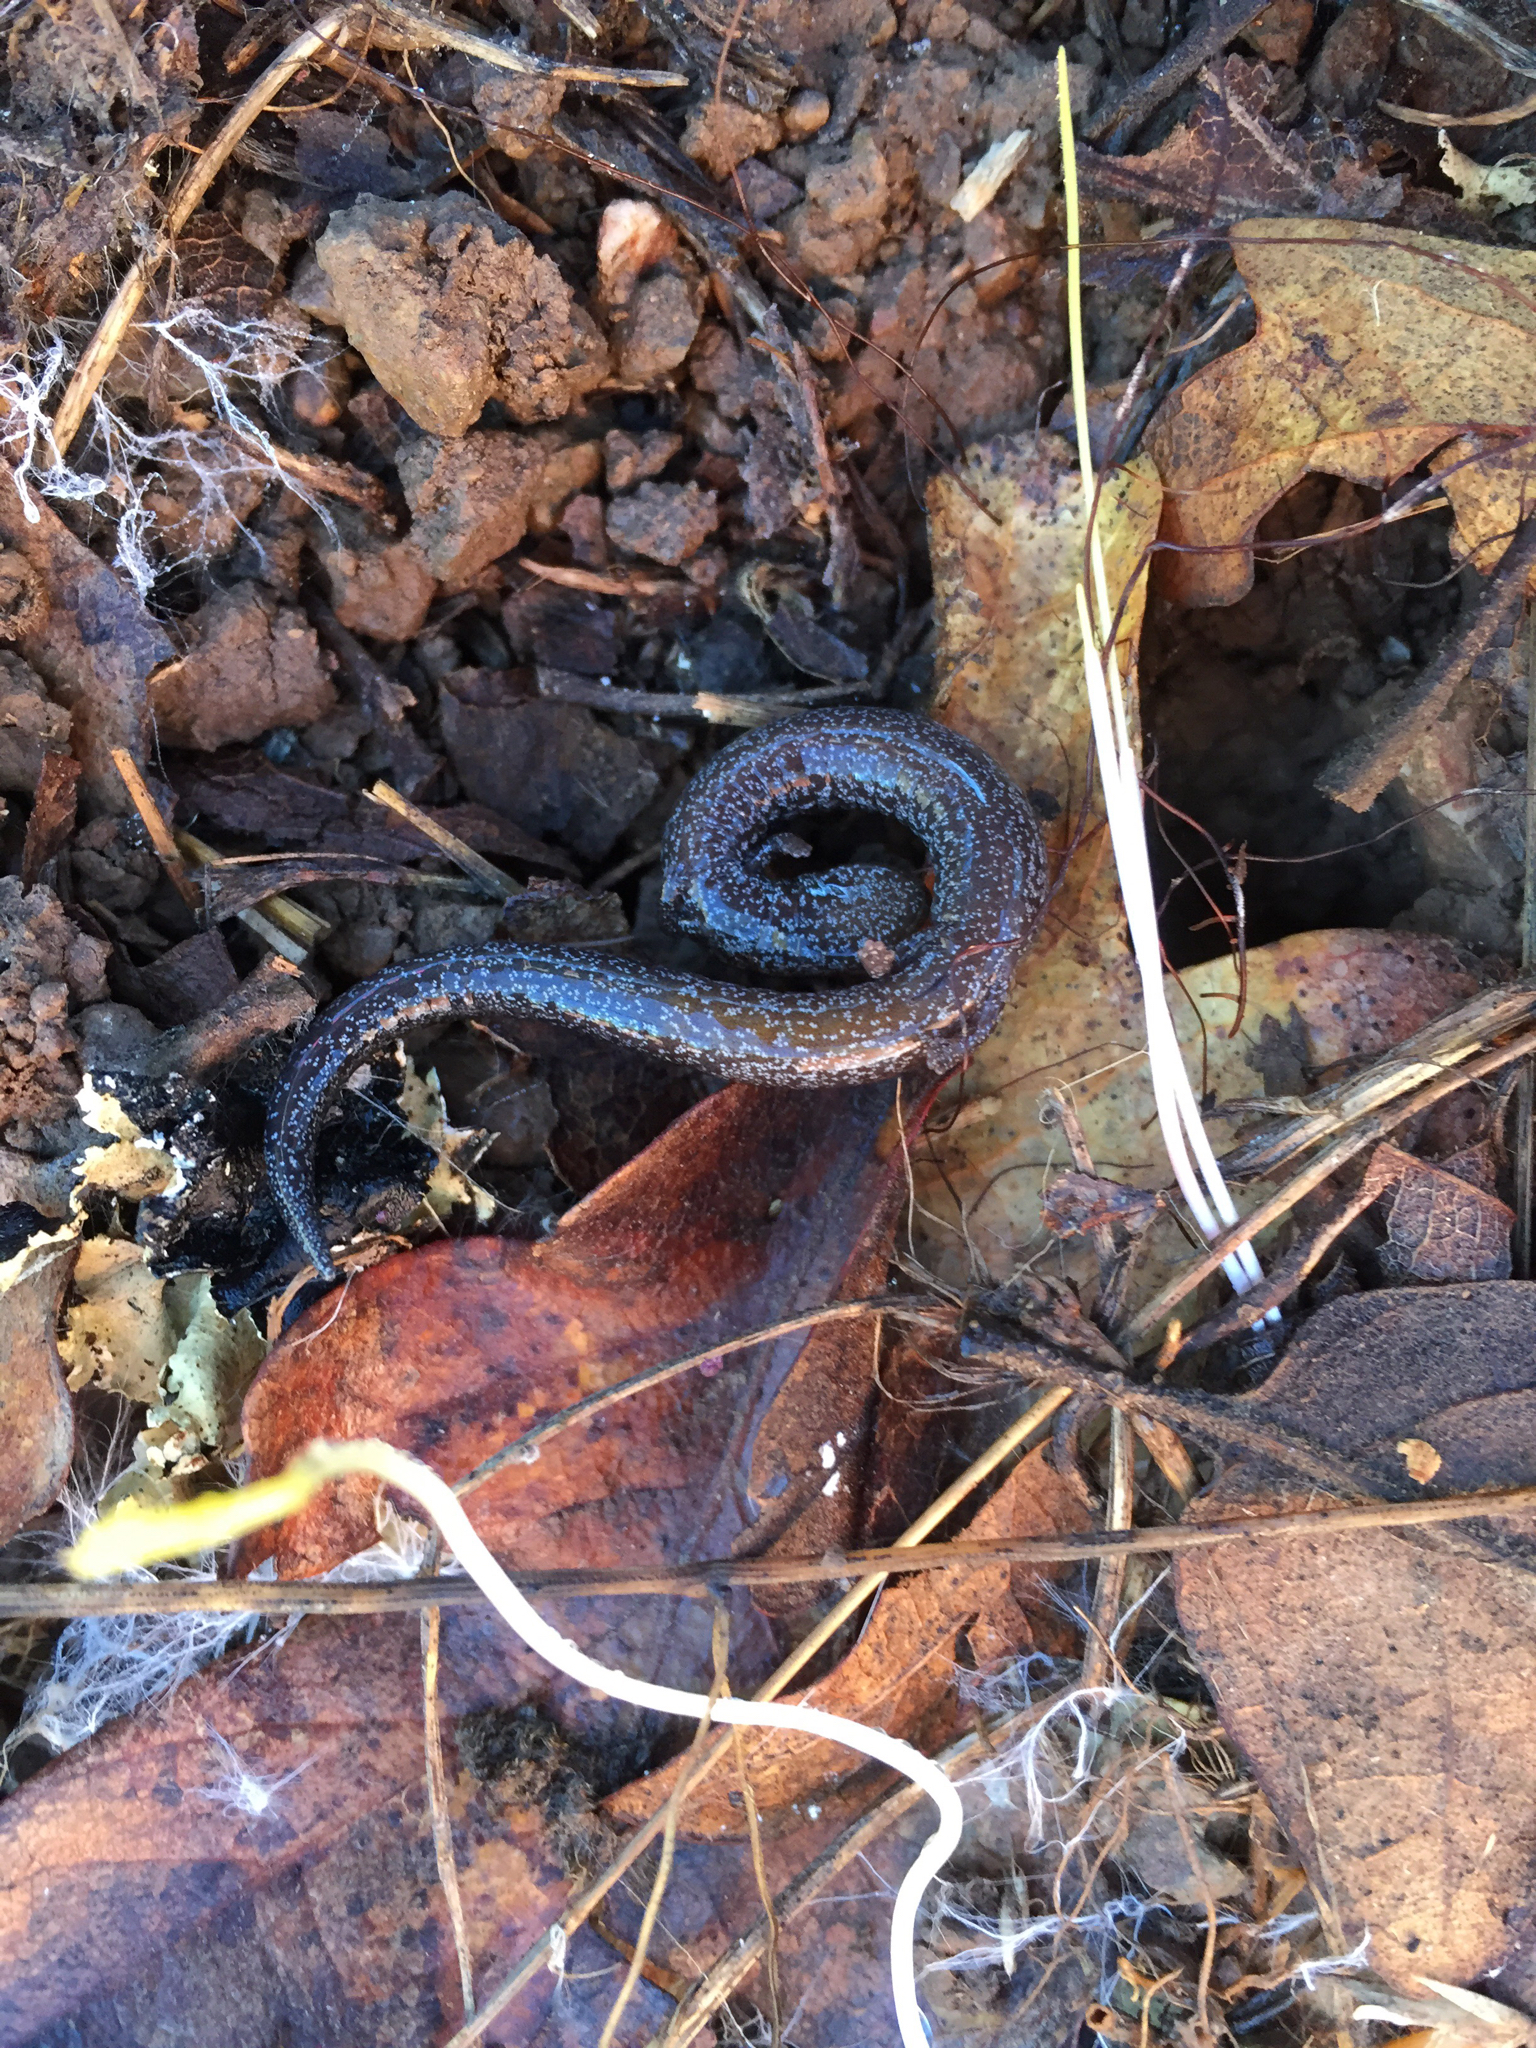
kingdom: Animalia
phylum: Chordata
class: Amphibia
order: Caudata
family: Plethodontidae
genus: Batrachoseps
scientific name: Batrachoseps attenuatus
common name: California slender salamander
